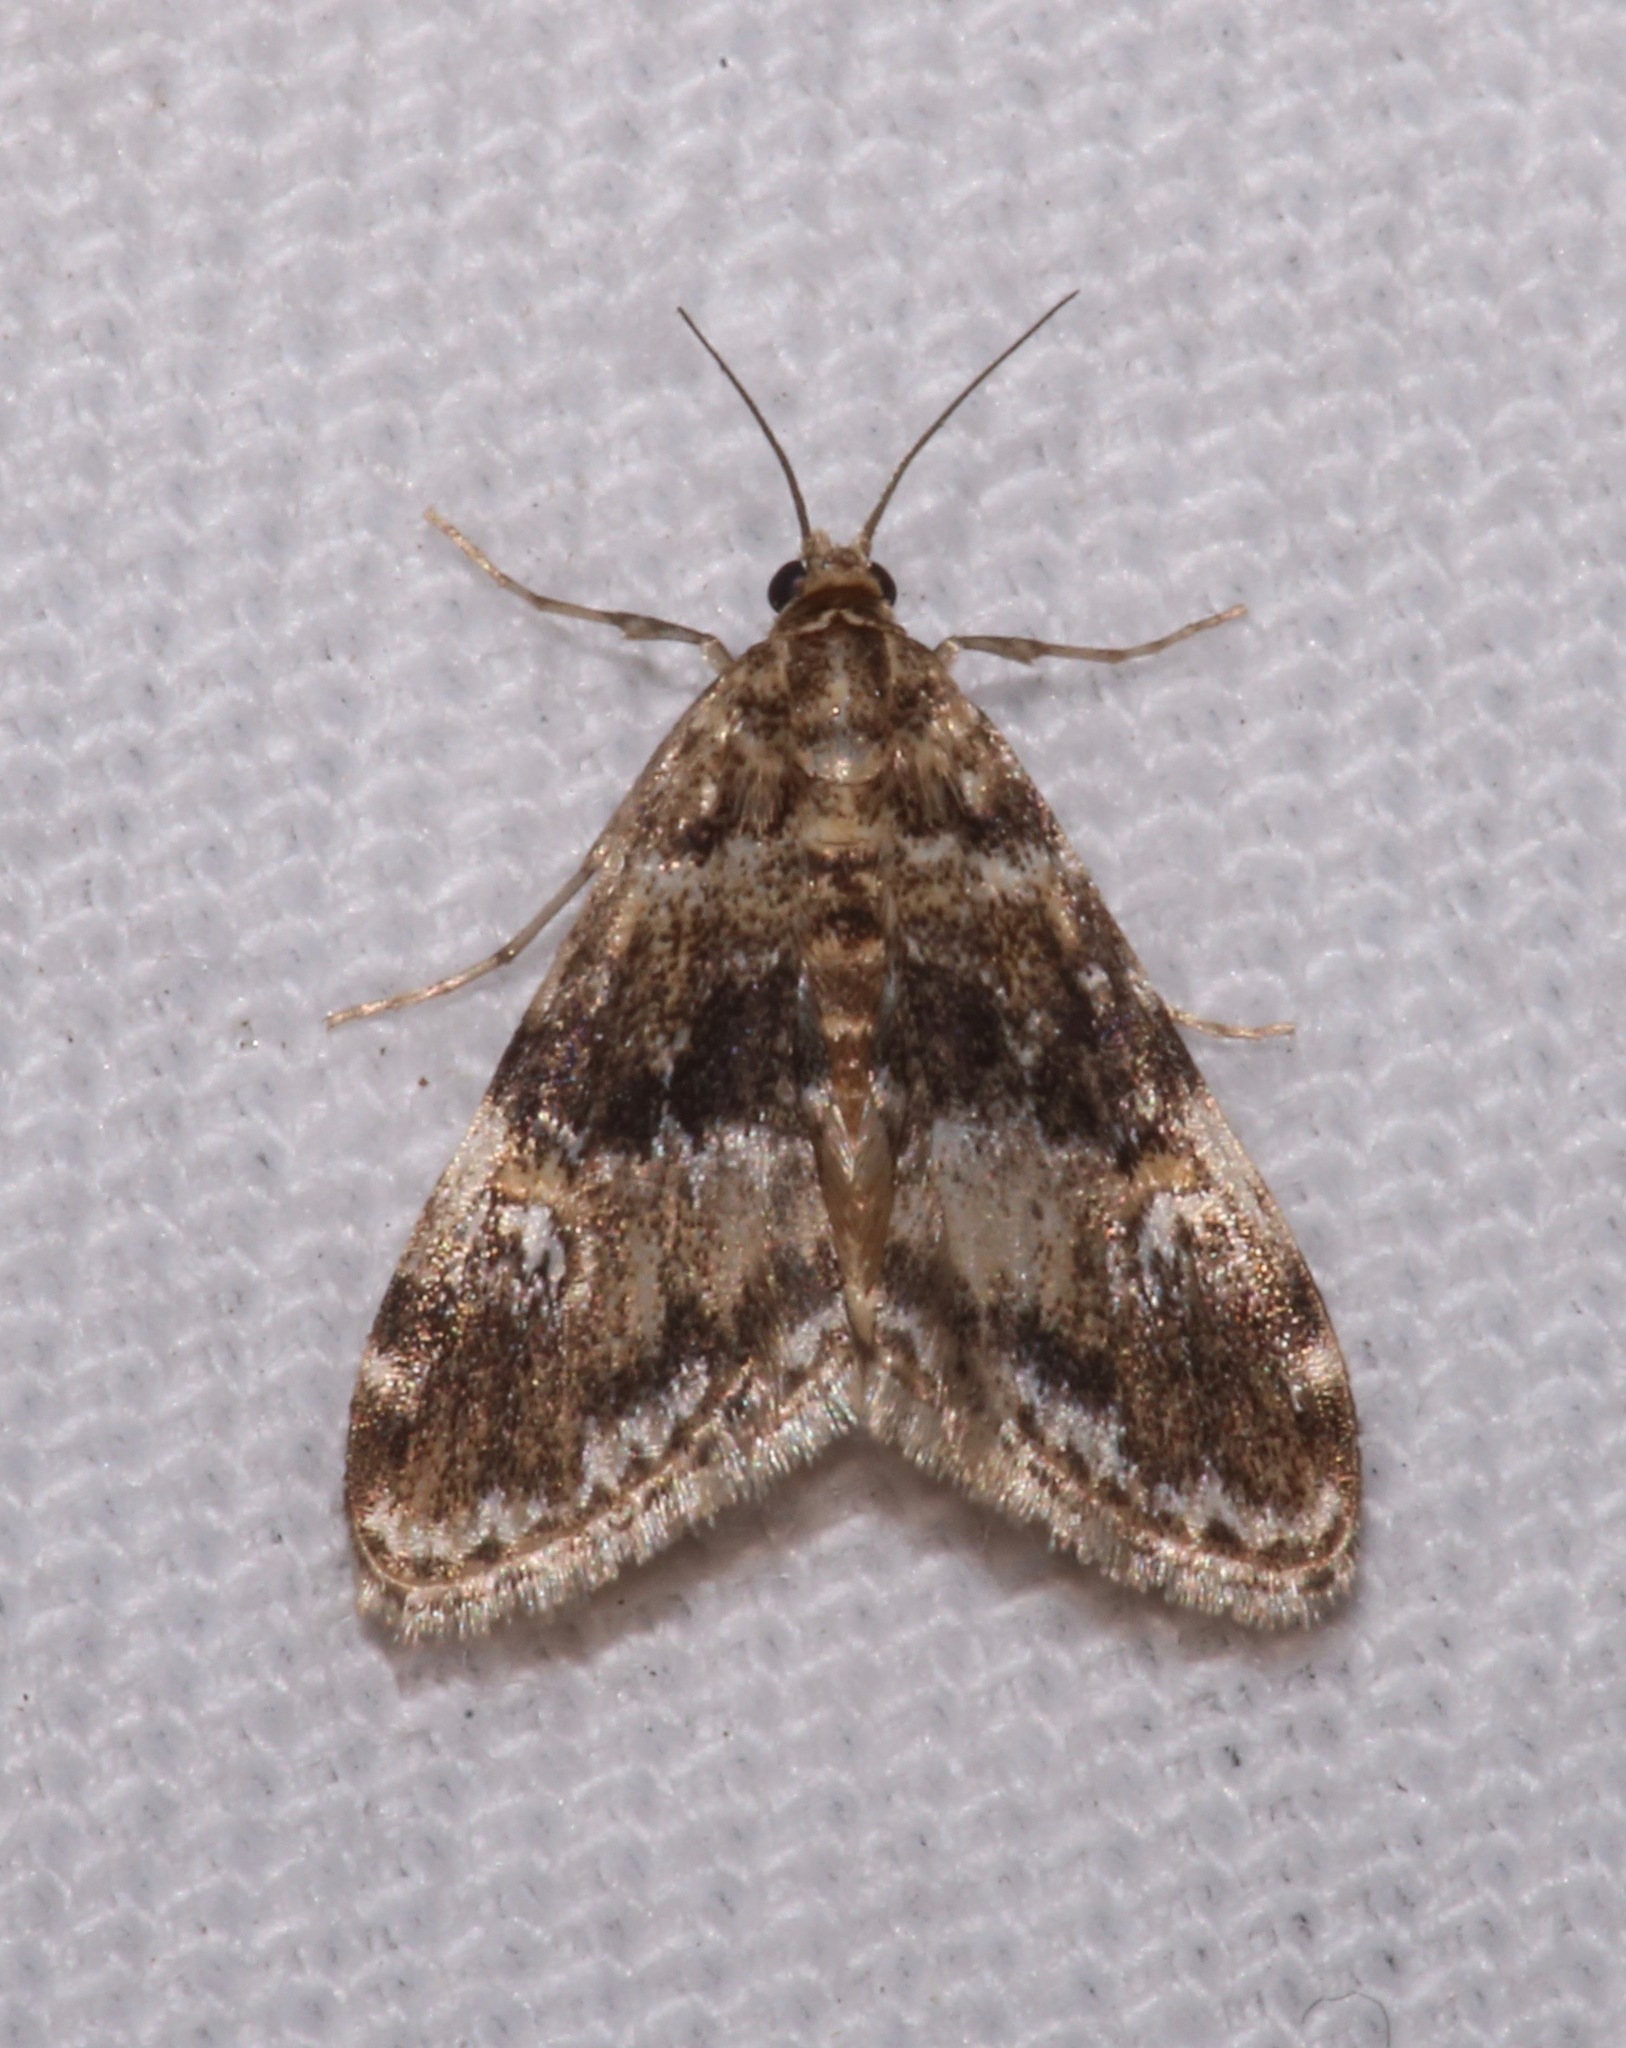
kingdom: Animalia
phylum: Arthropoda
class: Insecta
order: Lepidoptera
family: Crambidae
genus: Elophila
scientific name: Elophila obliteralis
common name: Waterlily leafcutter moth
